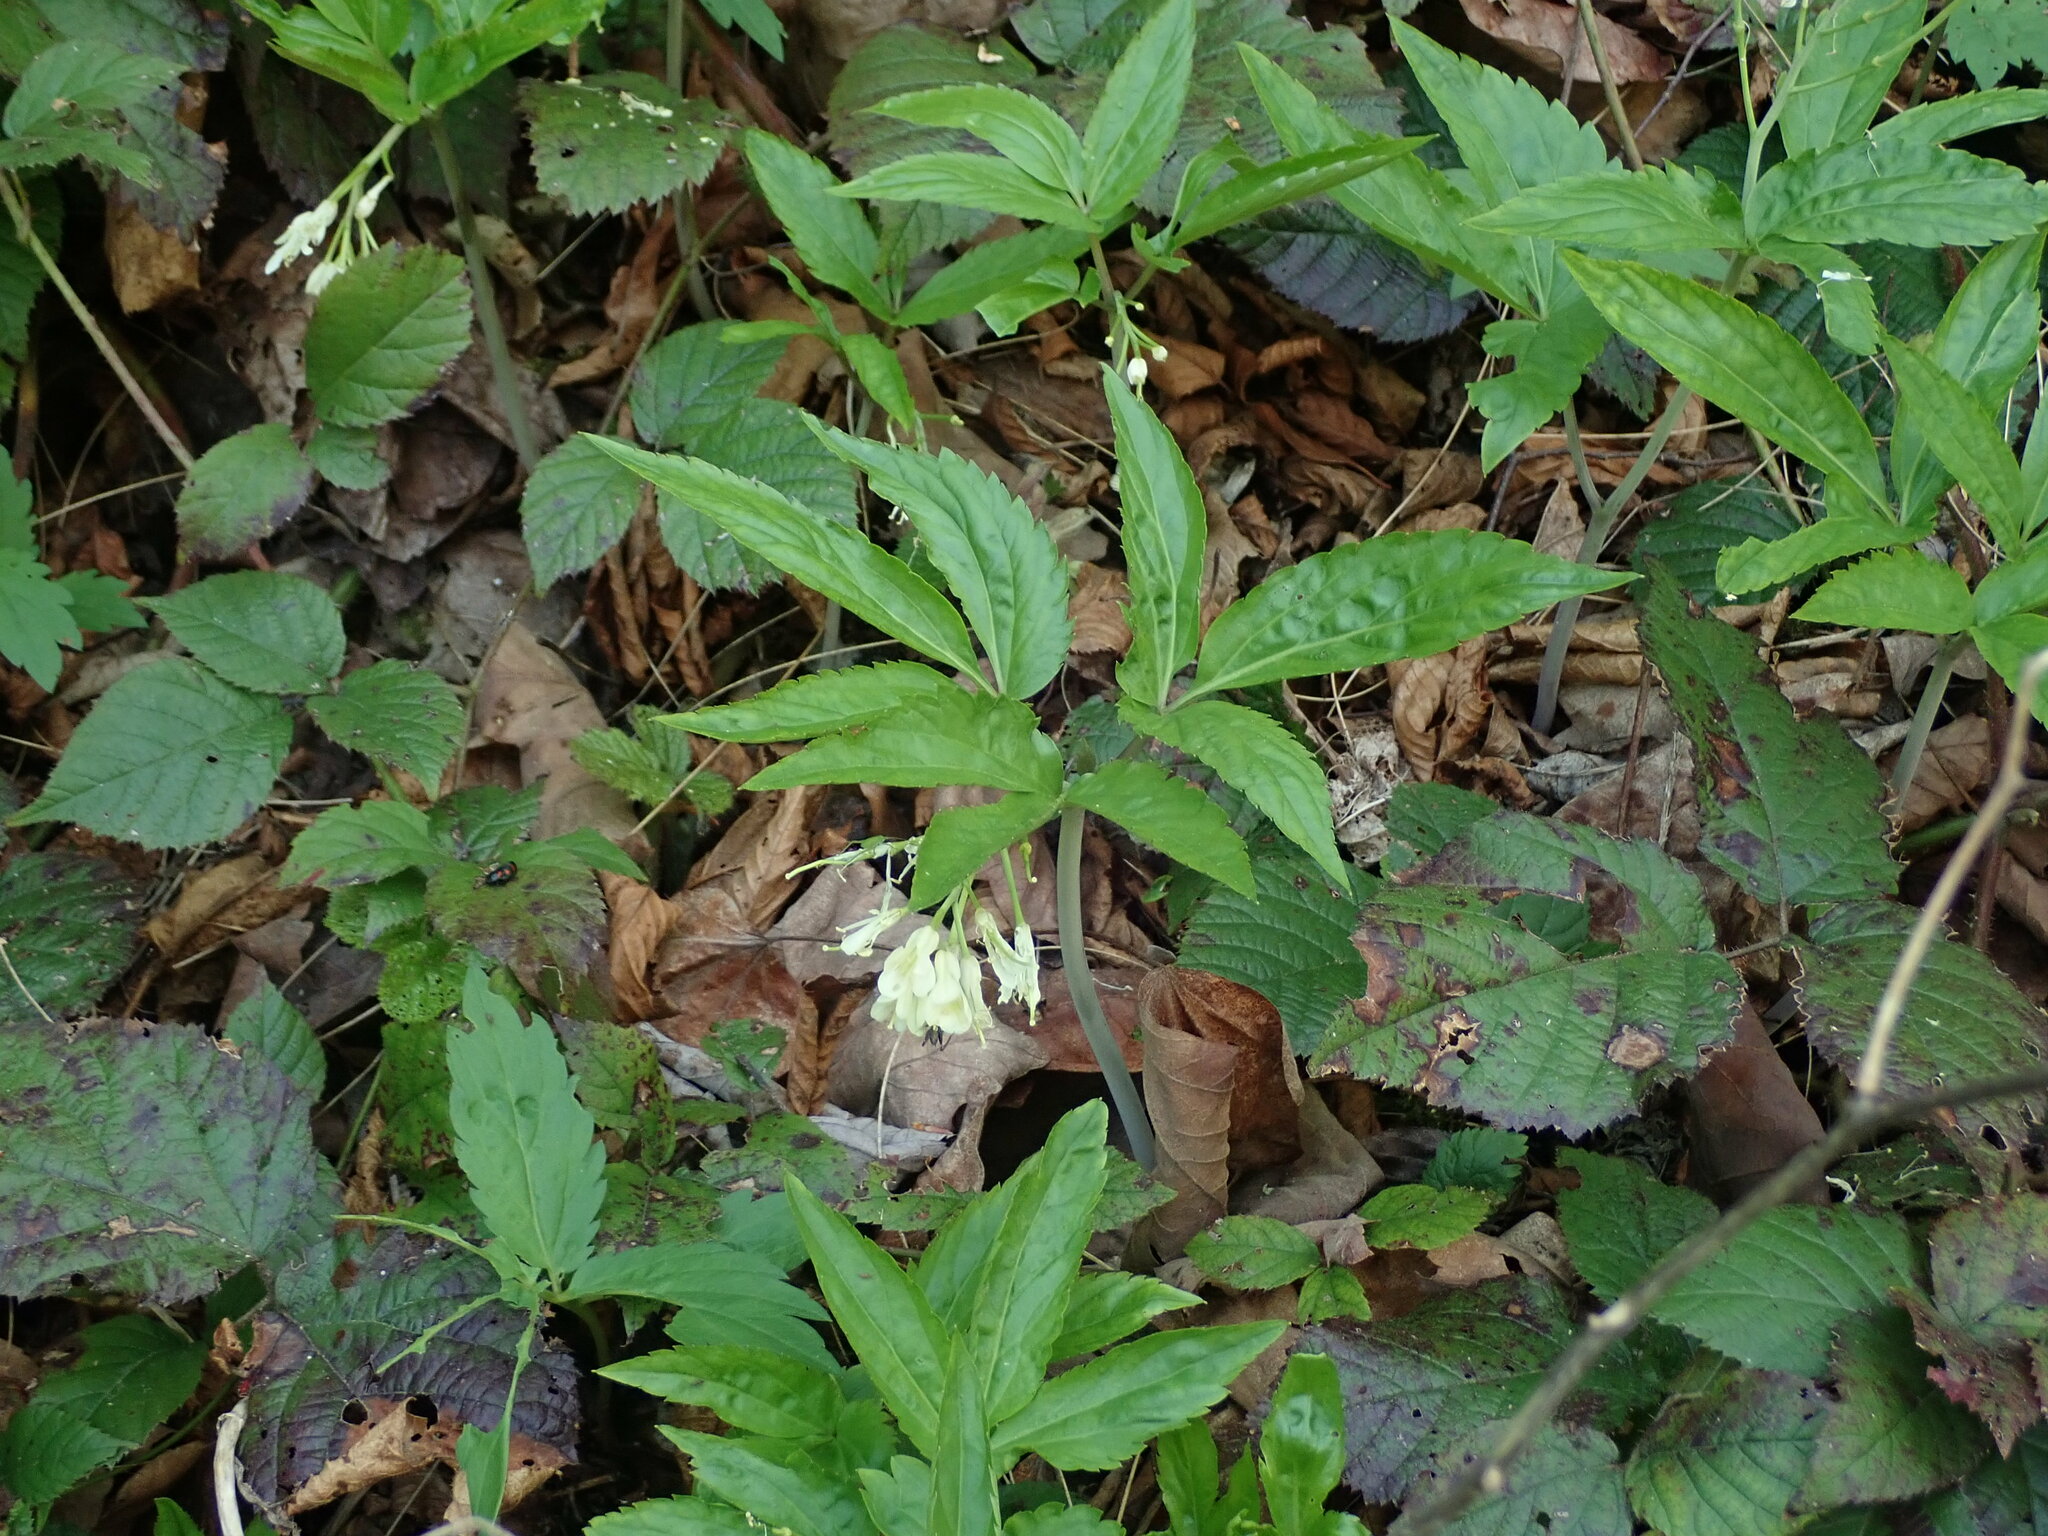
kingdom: Plantae
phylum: Tracheophyta
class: Magnoliopsida
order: Brassicales
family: Brassicaceae
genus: Cardamine
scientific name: Cardamine enneaphyllos
